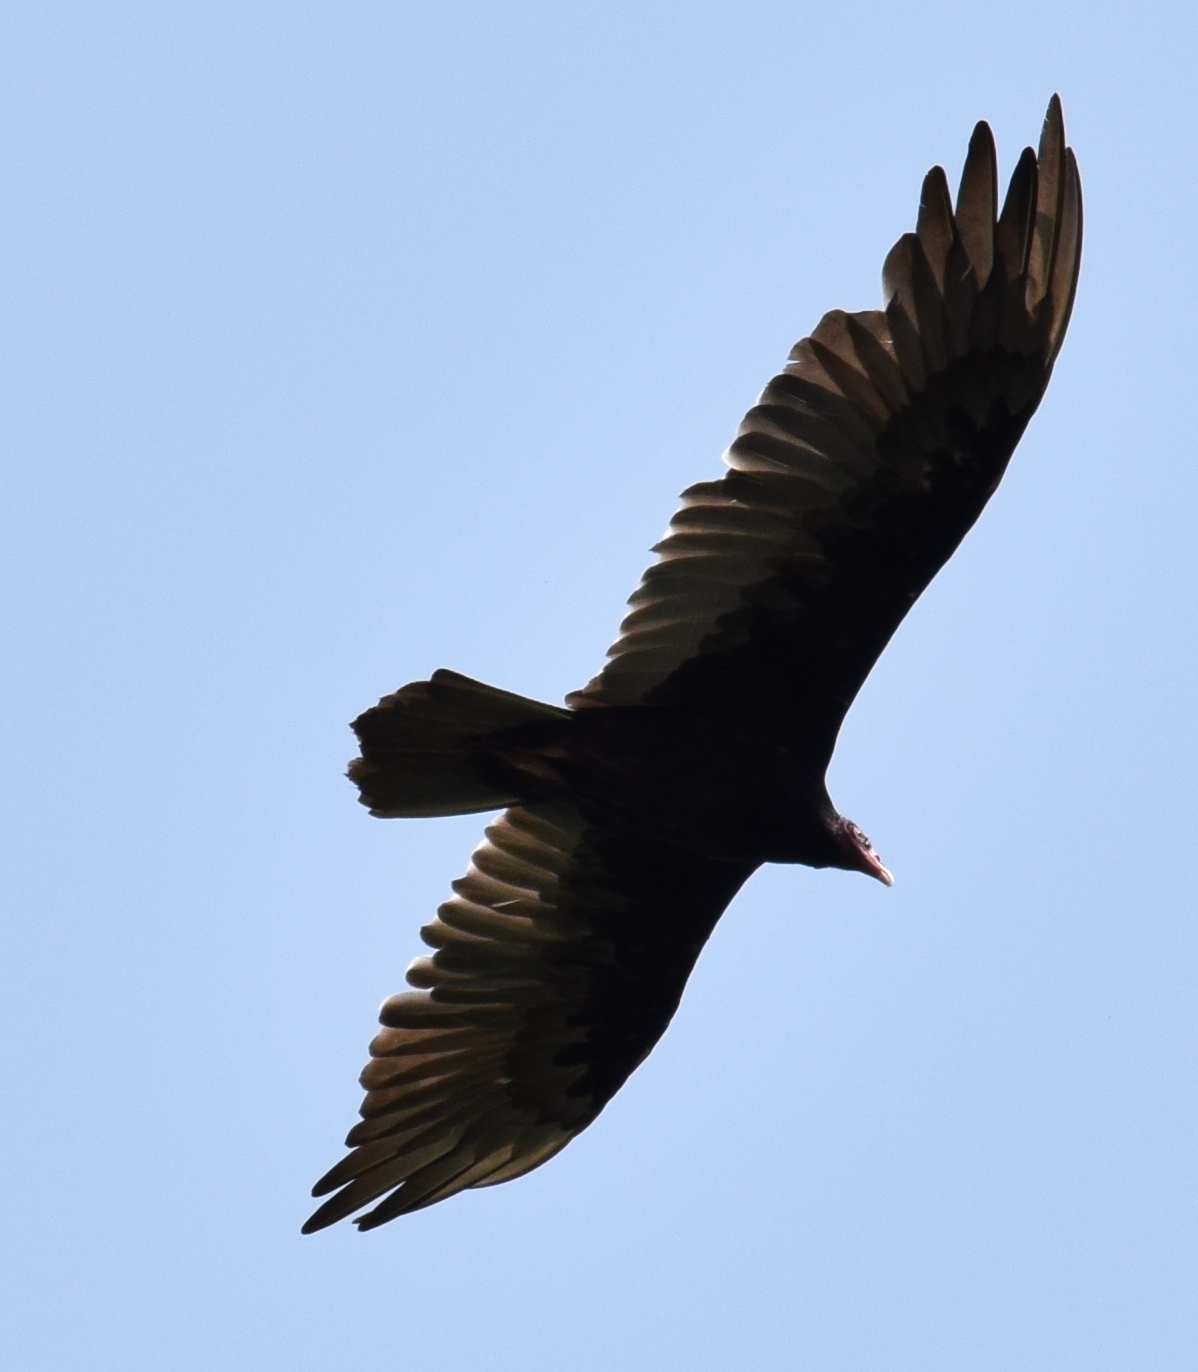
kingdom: Animalia
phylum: Chordata
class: Aves
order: Accipitriformes
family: Cathartidae
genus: Cathartes
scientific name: Cathartes aura
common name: Turkey vulture
